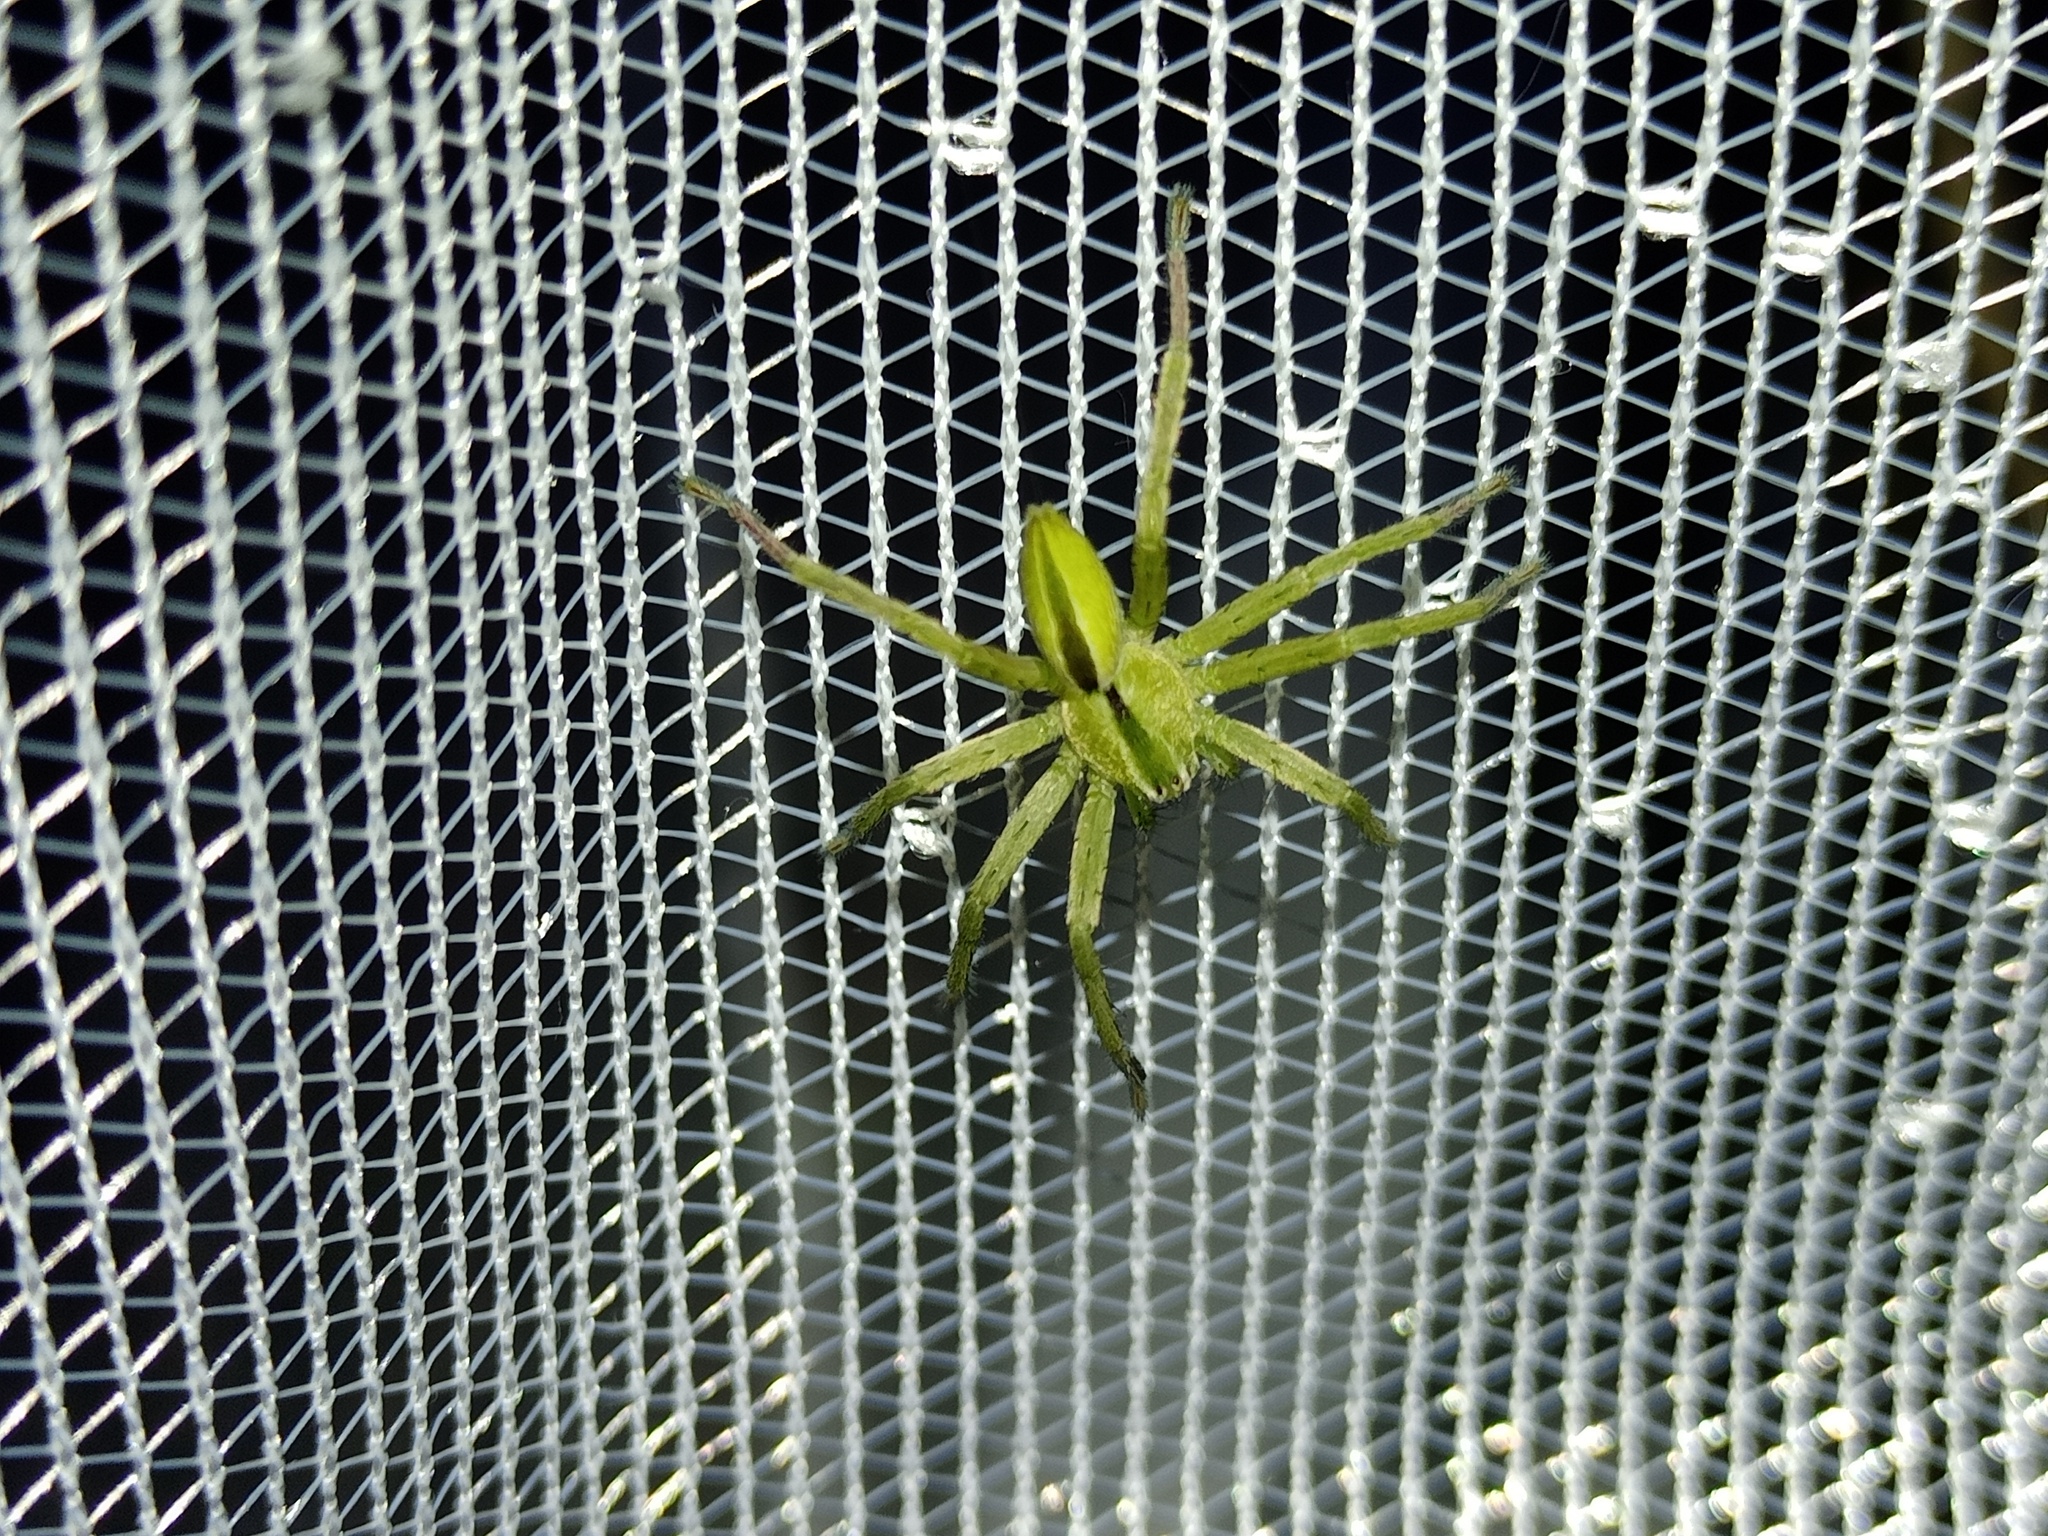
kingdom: Animalia
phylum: Arthropoda
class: Arachnida
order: Araneae
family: Sparassidae
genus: Micrommata
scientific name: Micrommata ligurina
